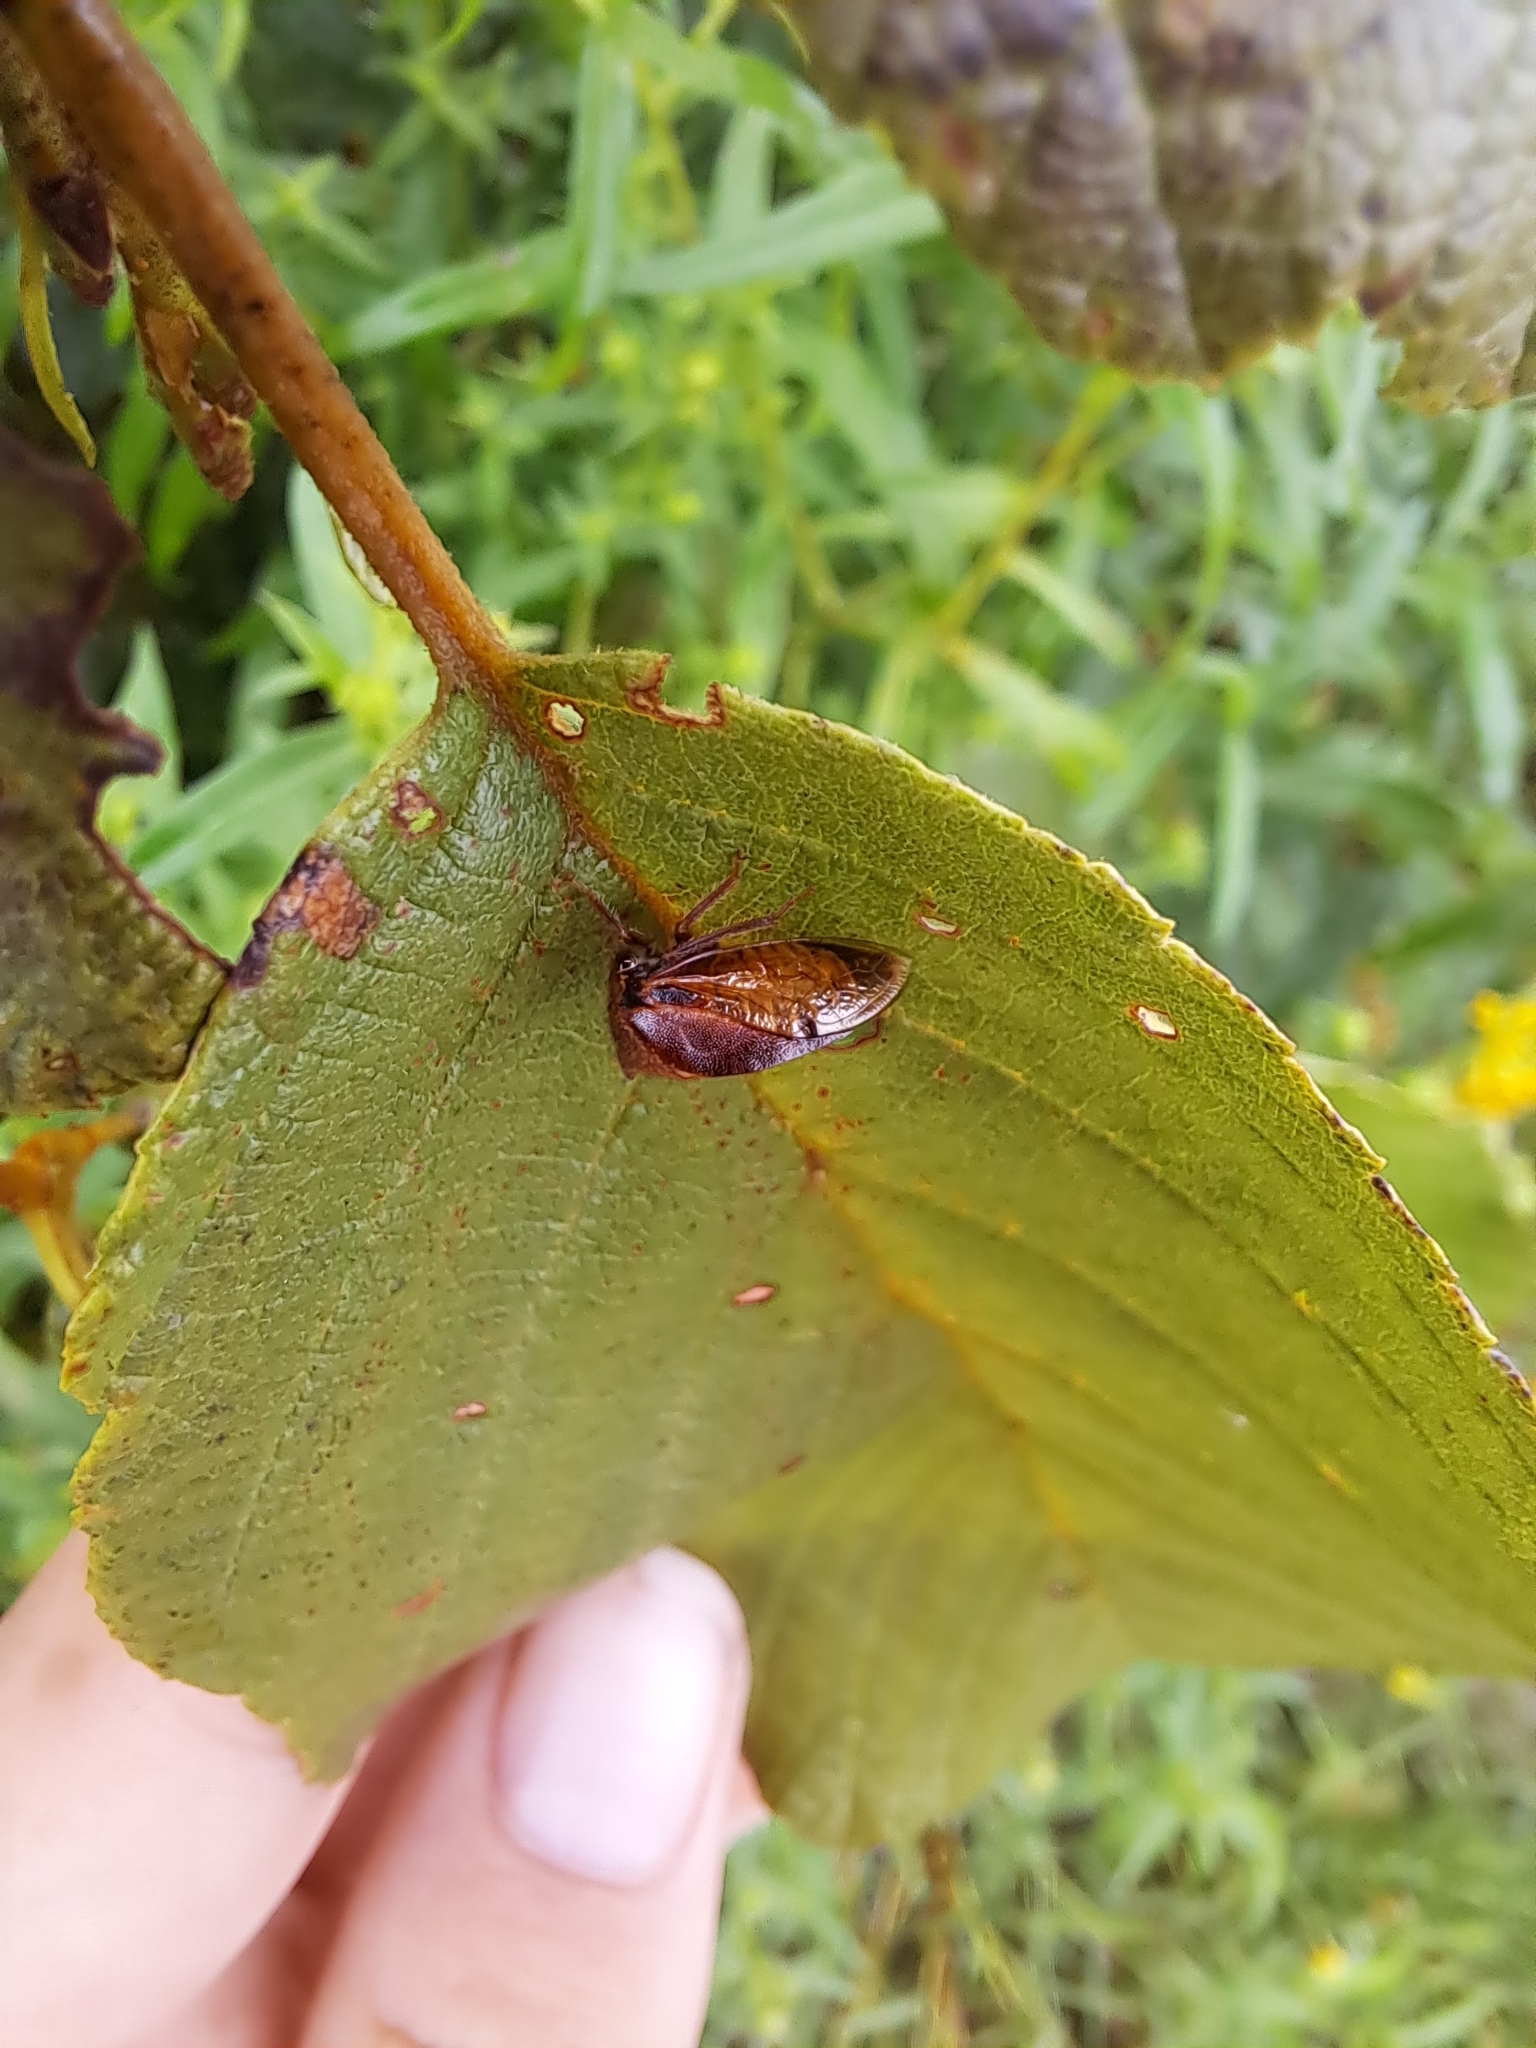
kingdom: Animalia
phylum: Arthropoda
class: Insecta
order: Hemiptera
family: Membracidae
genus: Stictocephala
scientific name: Stictocephala basalis
